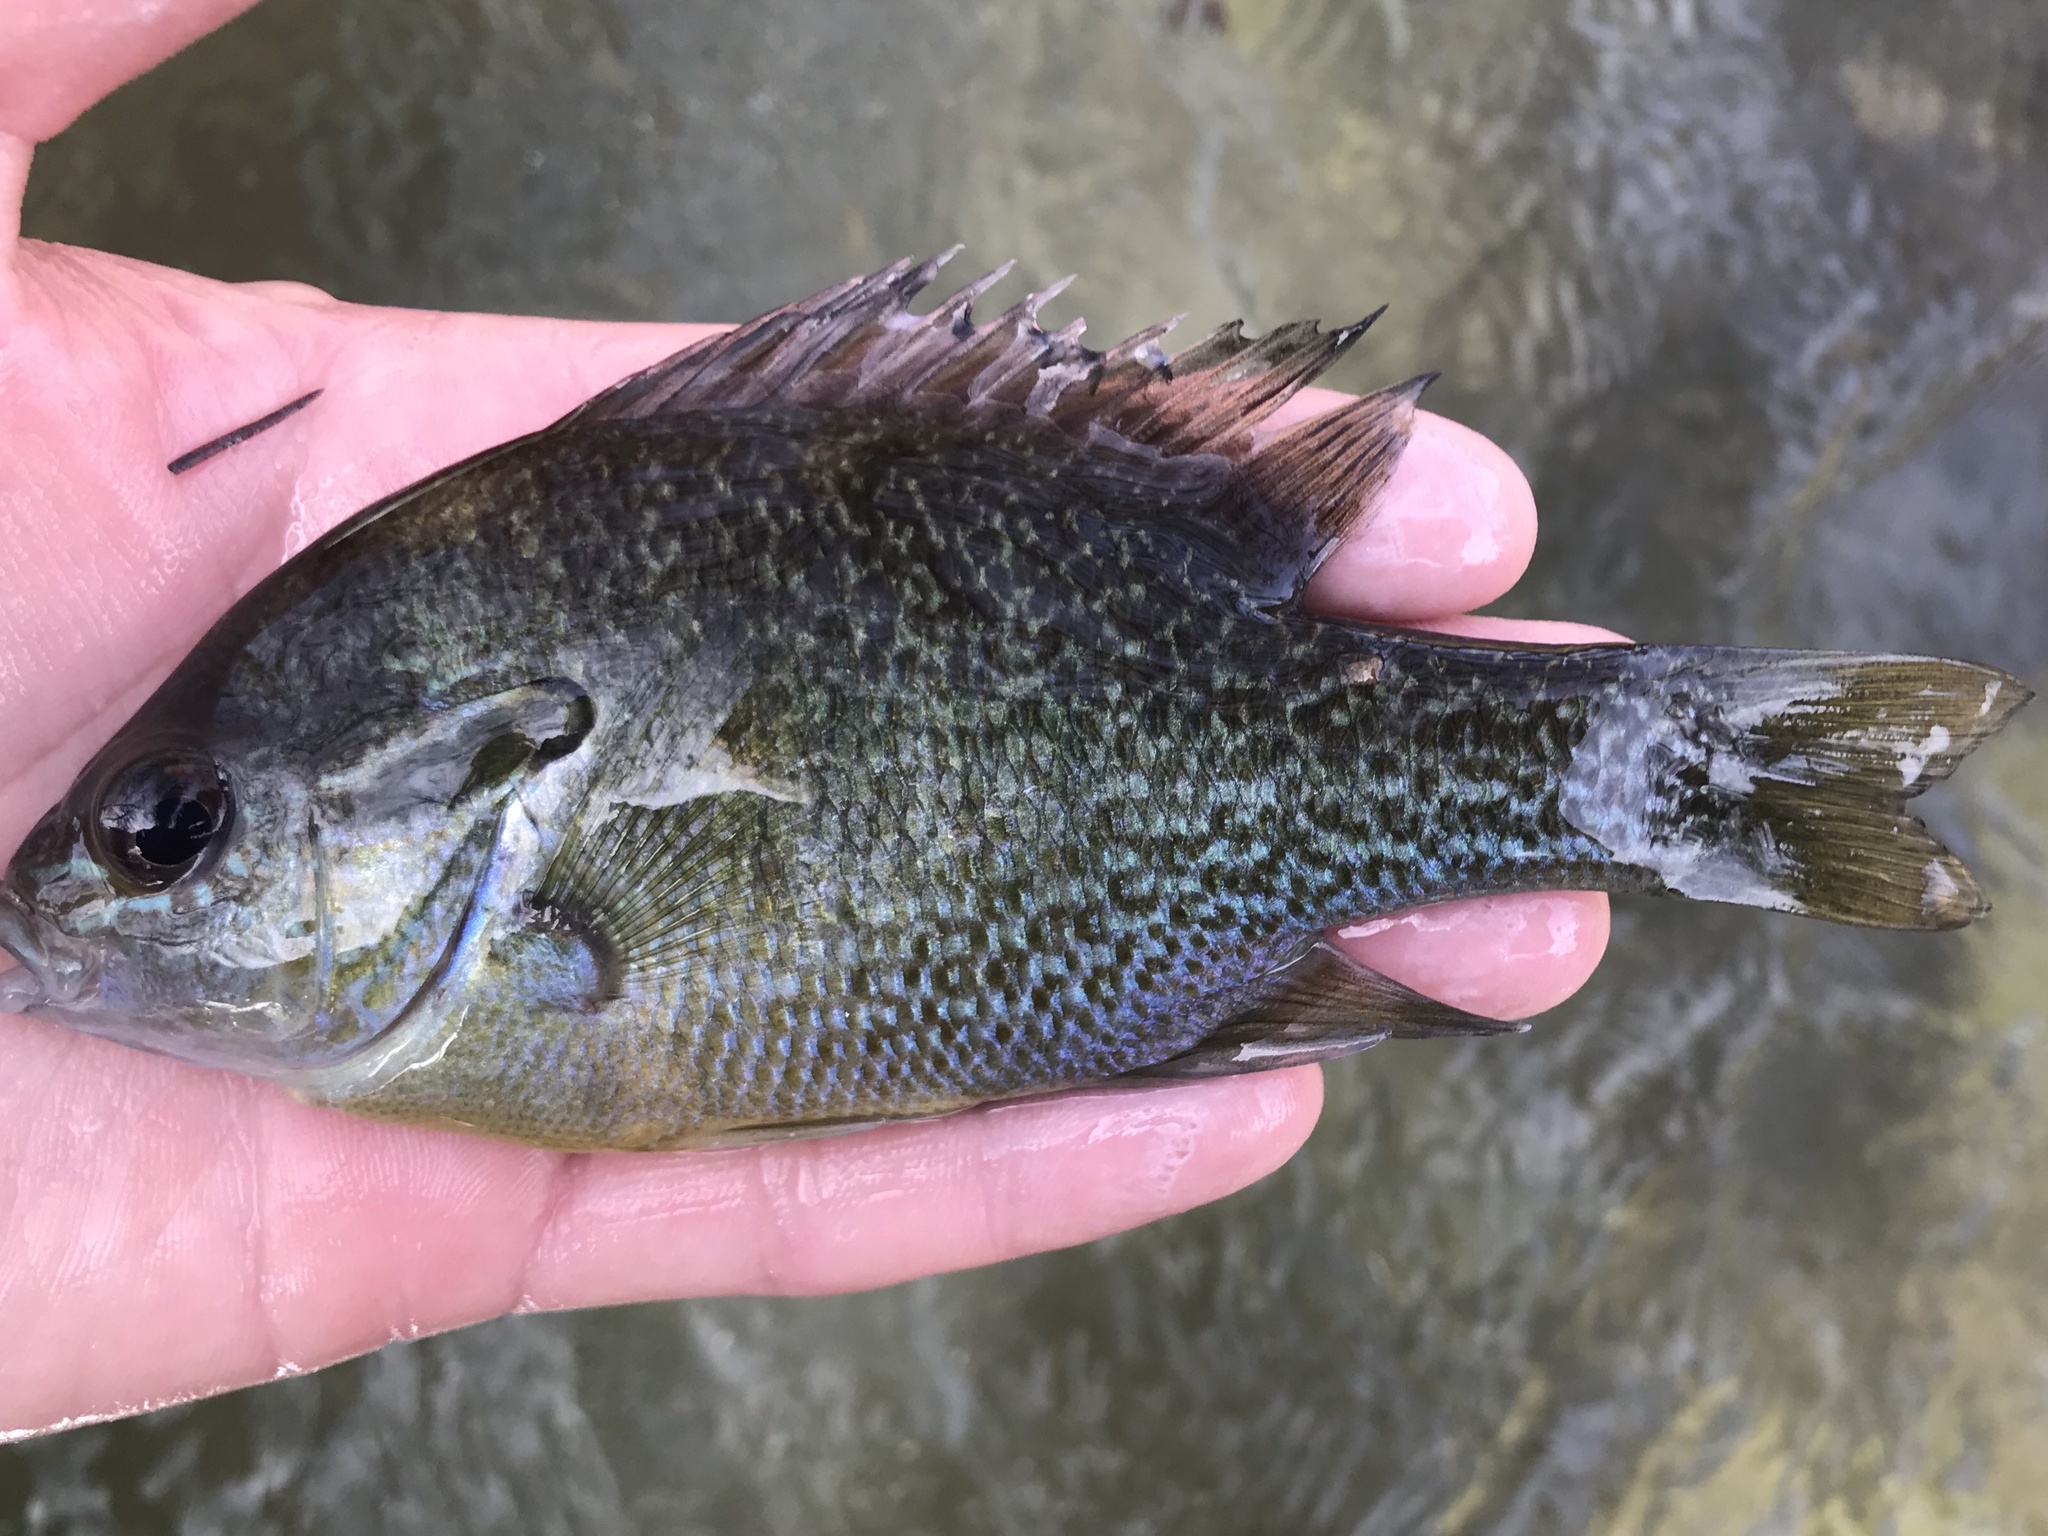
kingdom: Animalia
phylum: Chordata
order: Perciformes
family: Centrarchidae
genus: Lepomis
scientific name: Lepomis auritus
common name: Redbreast sunfish
